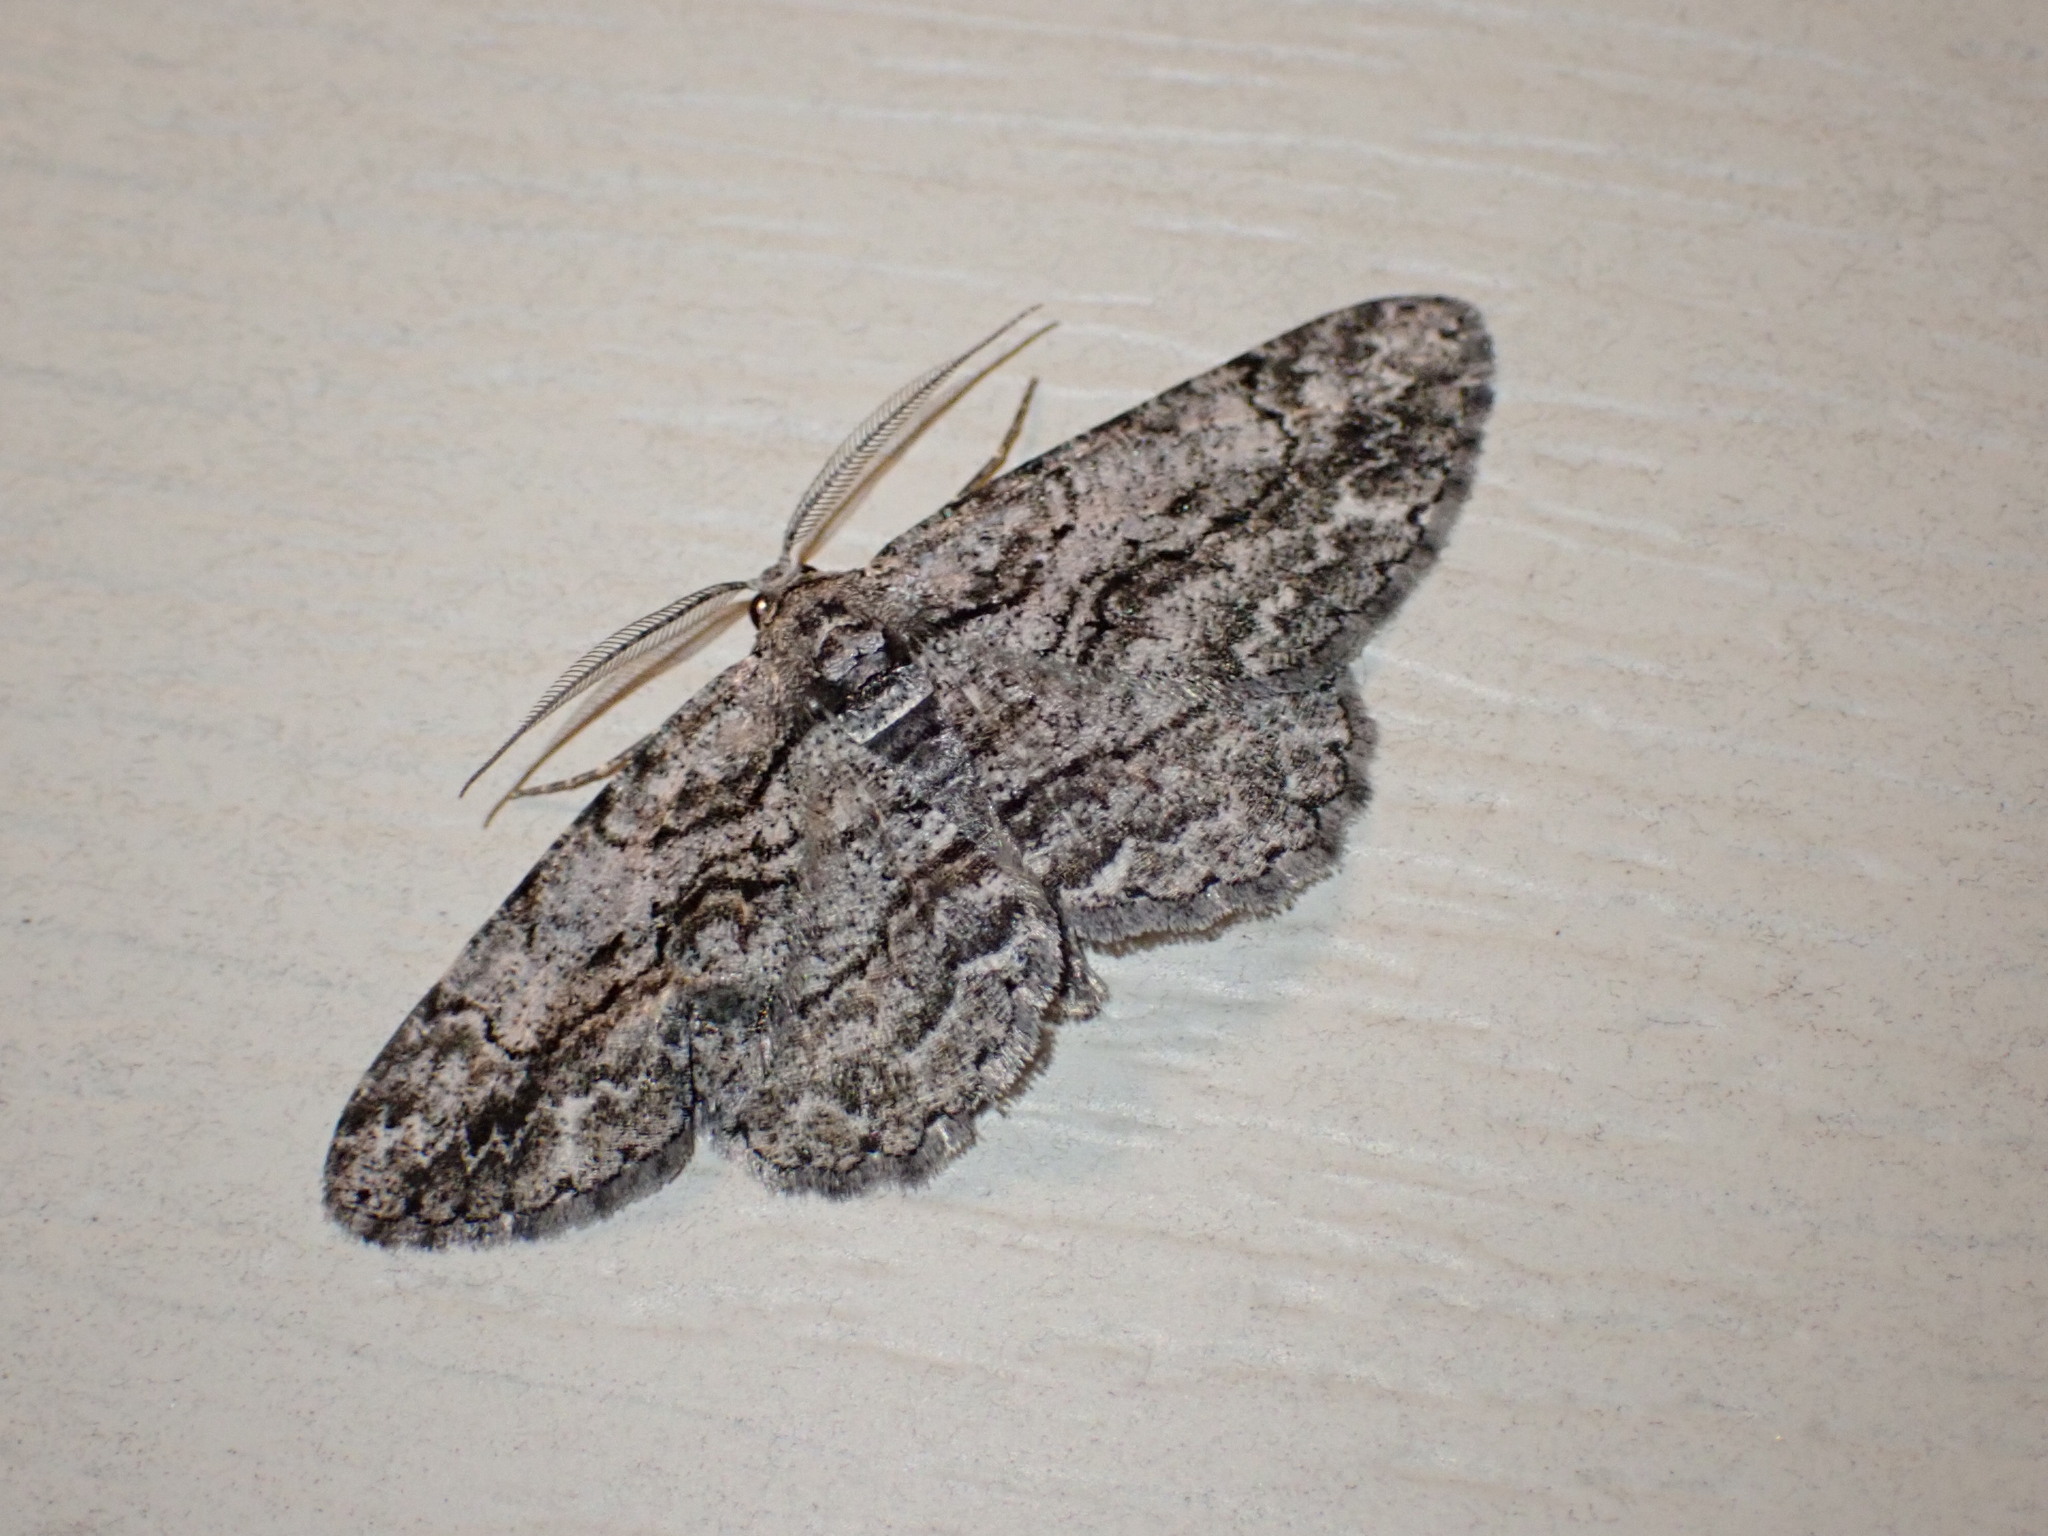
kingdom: Animalia
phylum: Arthropoda
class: Insecta
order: Lepidoptera
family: Geometridae
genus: Anavitrinella
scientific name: Anavitrinella pampinaria
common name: Common gray
